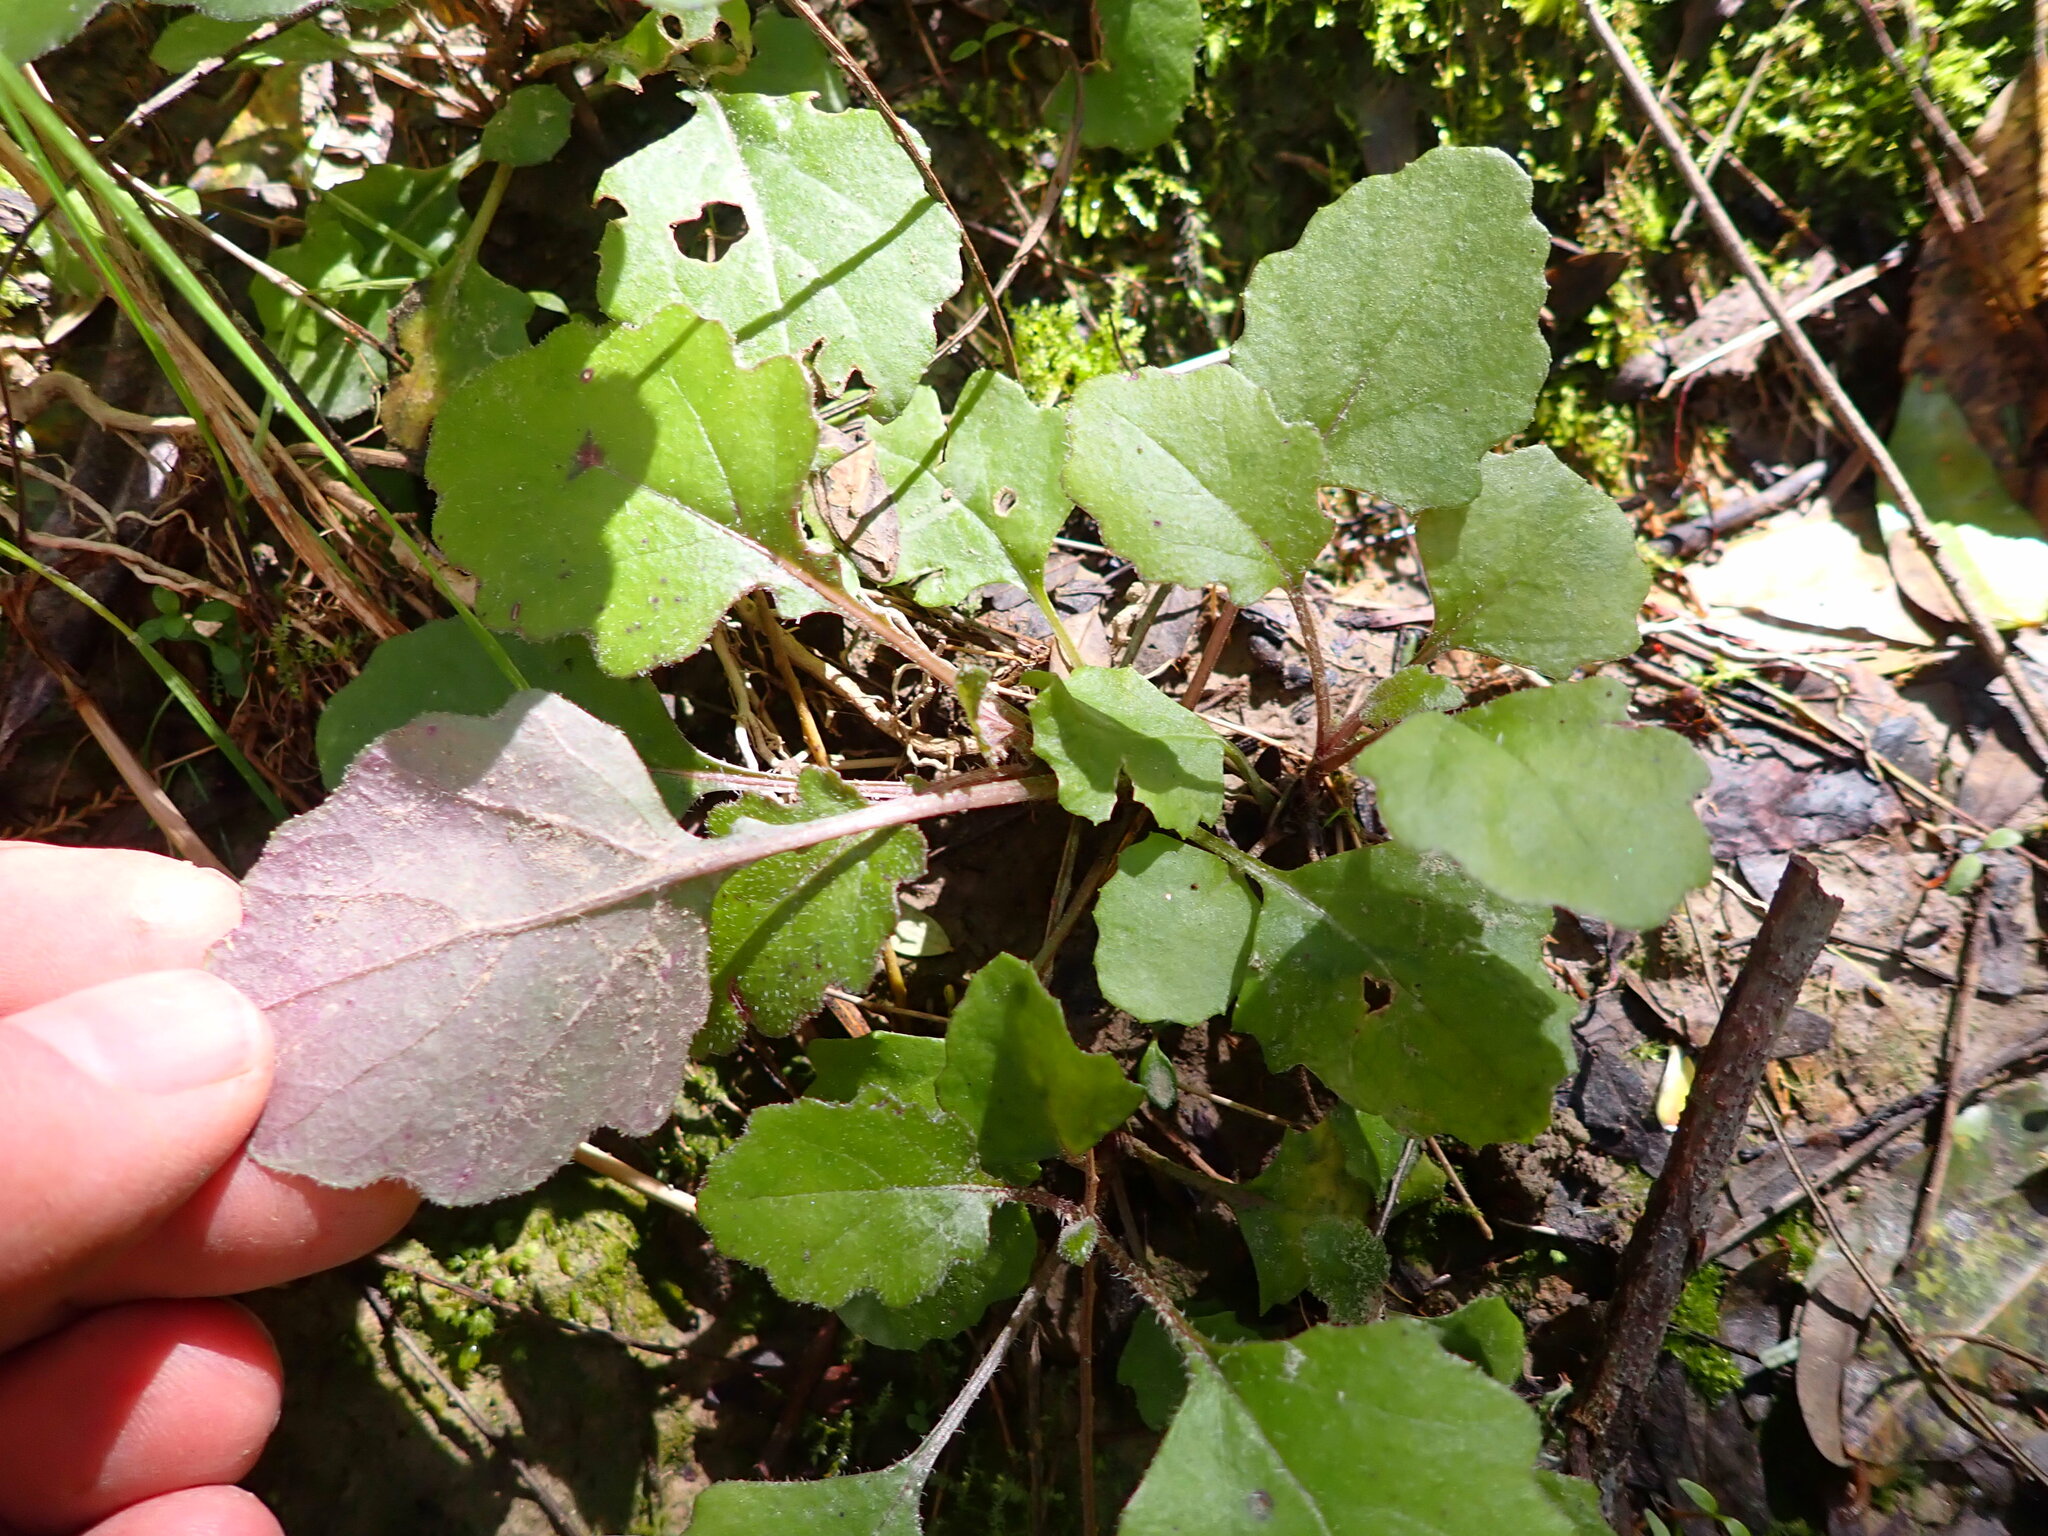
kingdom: Plantae
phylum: Tracheophyta
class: Magnoliopsida
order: Asterales
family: Asteraceae
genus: Senecio
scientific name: Senecio wairauensis
